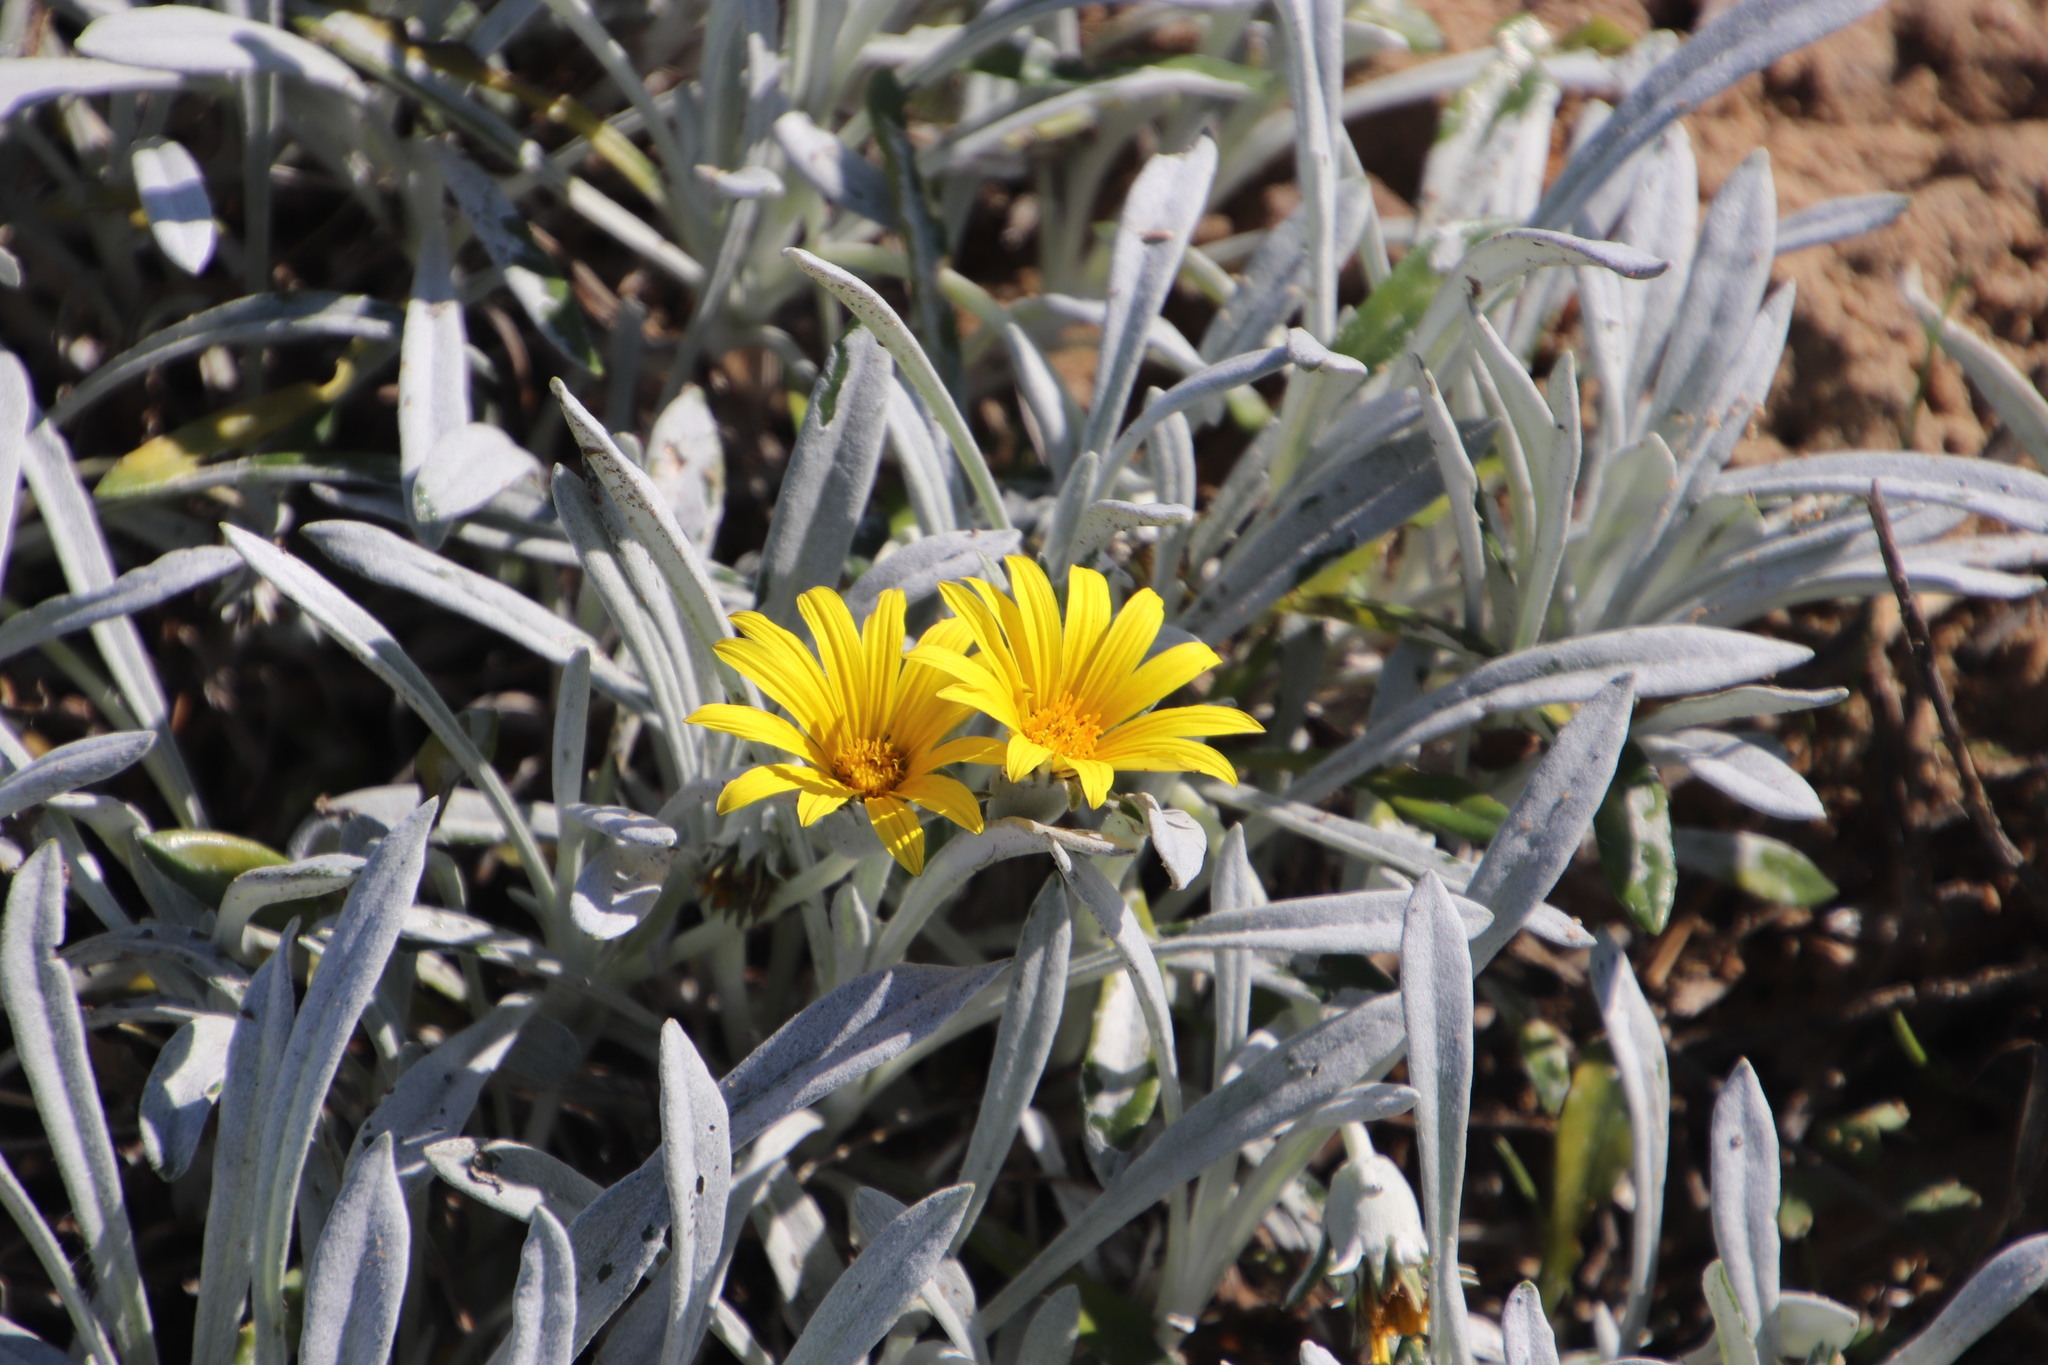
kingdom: Plantae
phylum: Tracheophyta
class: Magnoliopsida
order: Asterales
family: Asteraceae
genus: Gazania
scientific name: Gazania rigens
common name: Treasureflower
